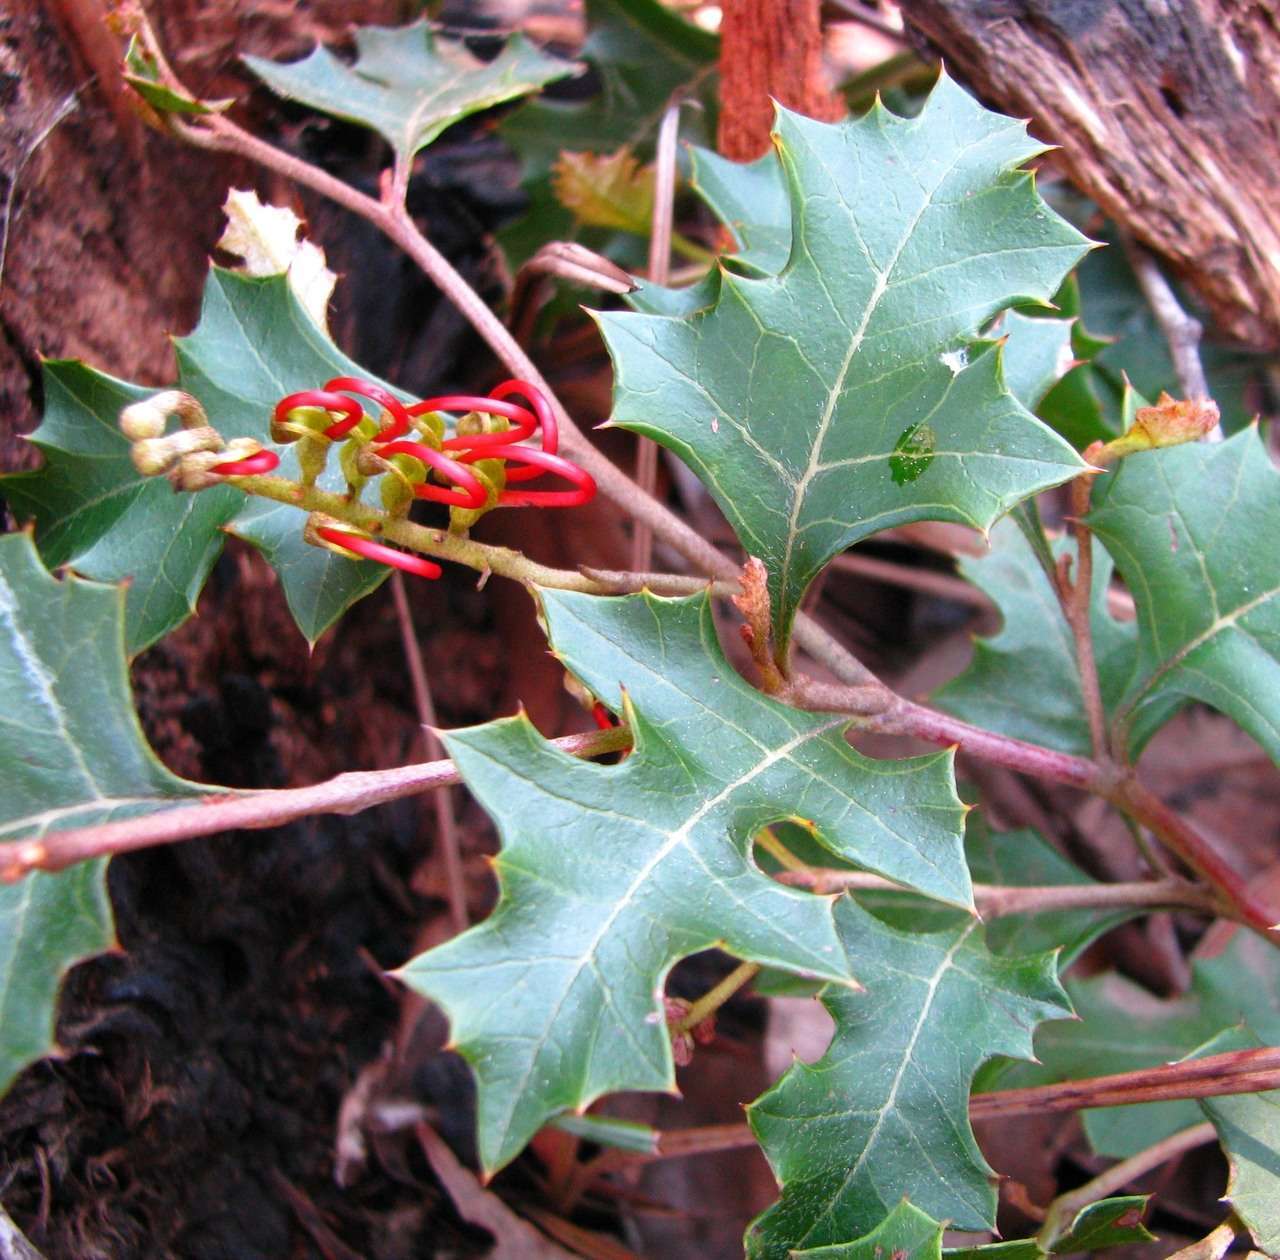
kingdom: Plantae
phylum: Tracheophyta
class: Magnoliopsida
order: Proteales
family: Proteaceae
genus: Grevillea
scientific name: Grevillea steiglitziana
